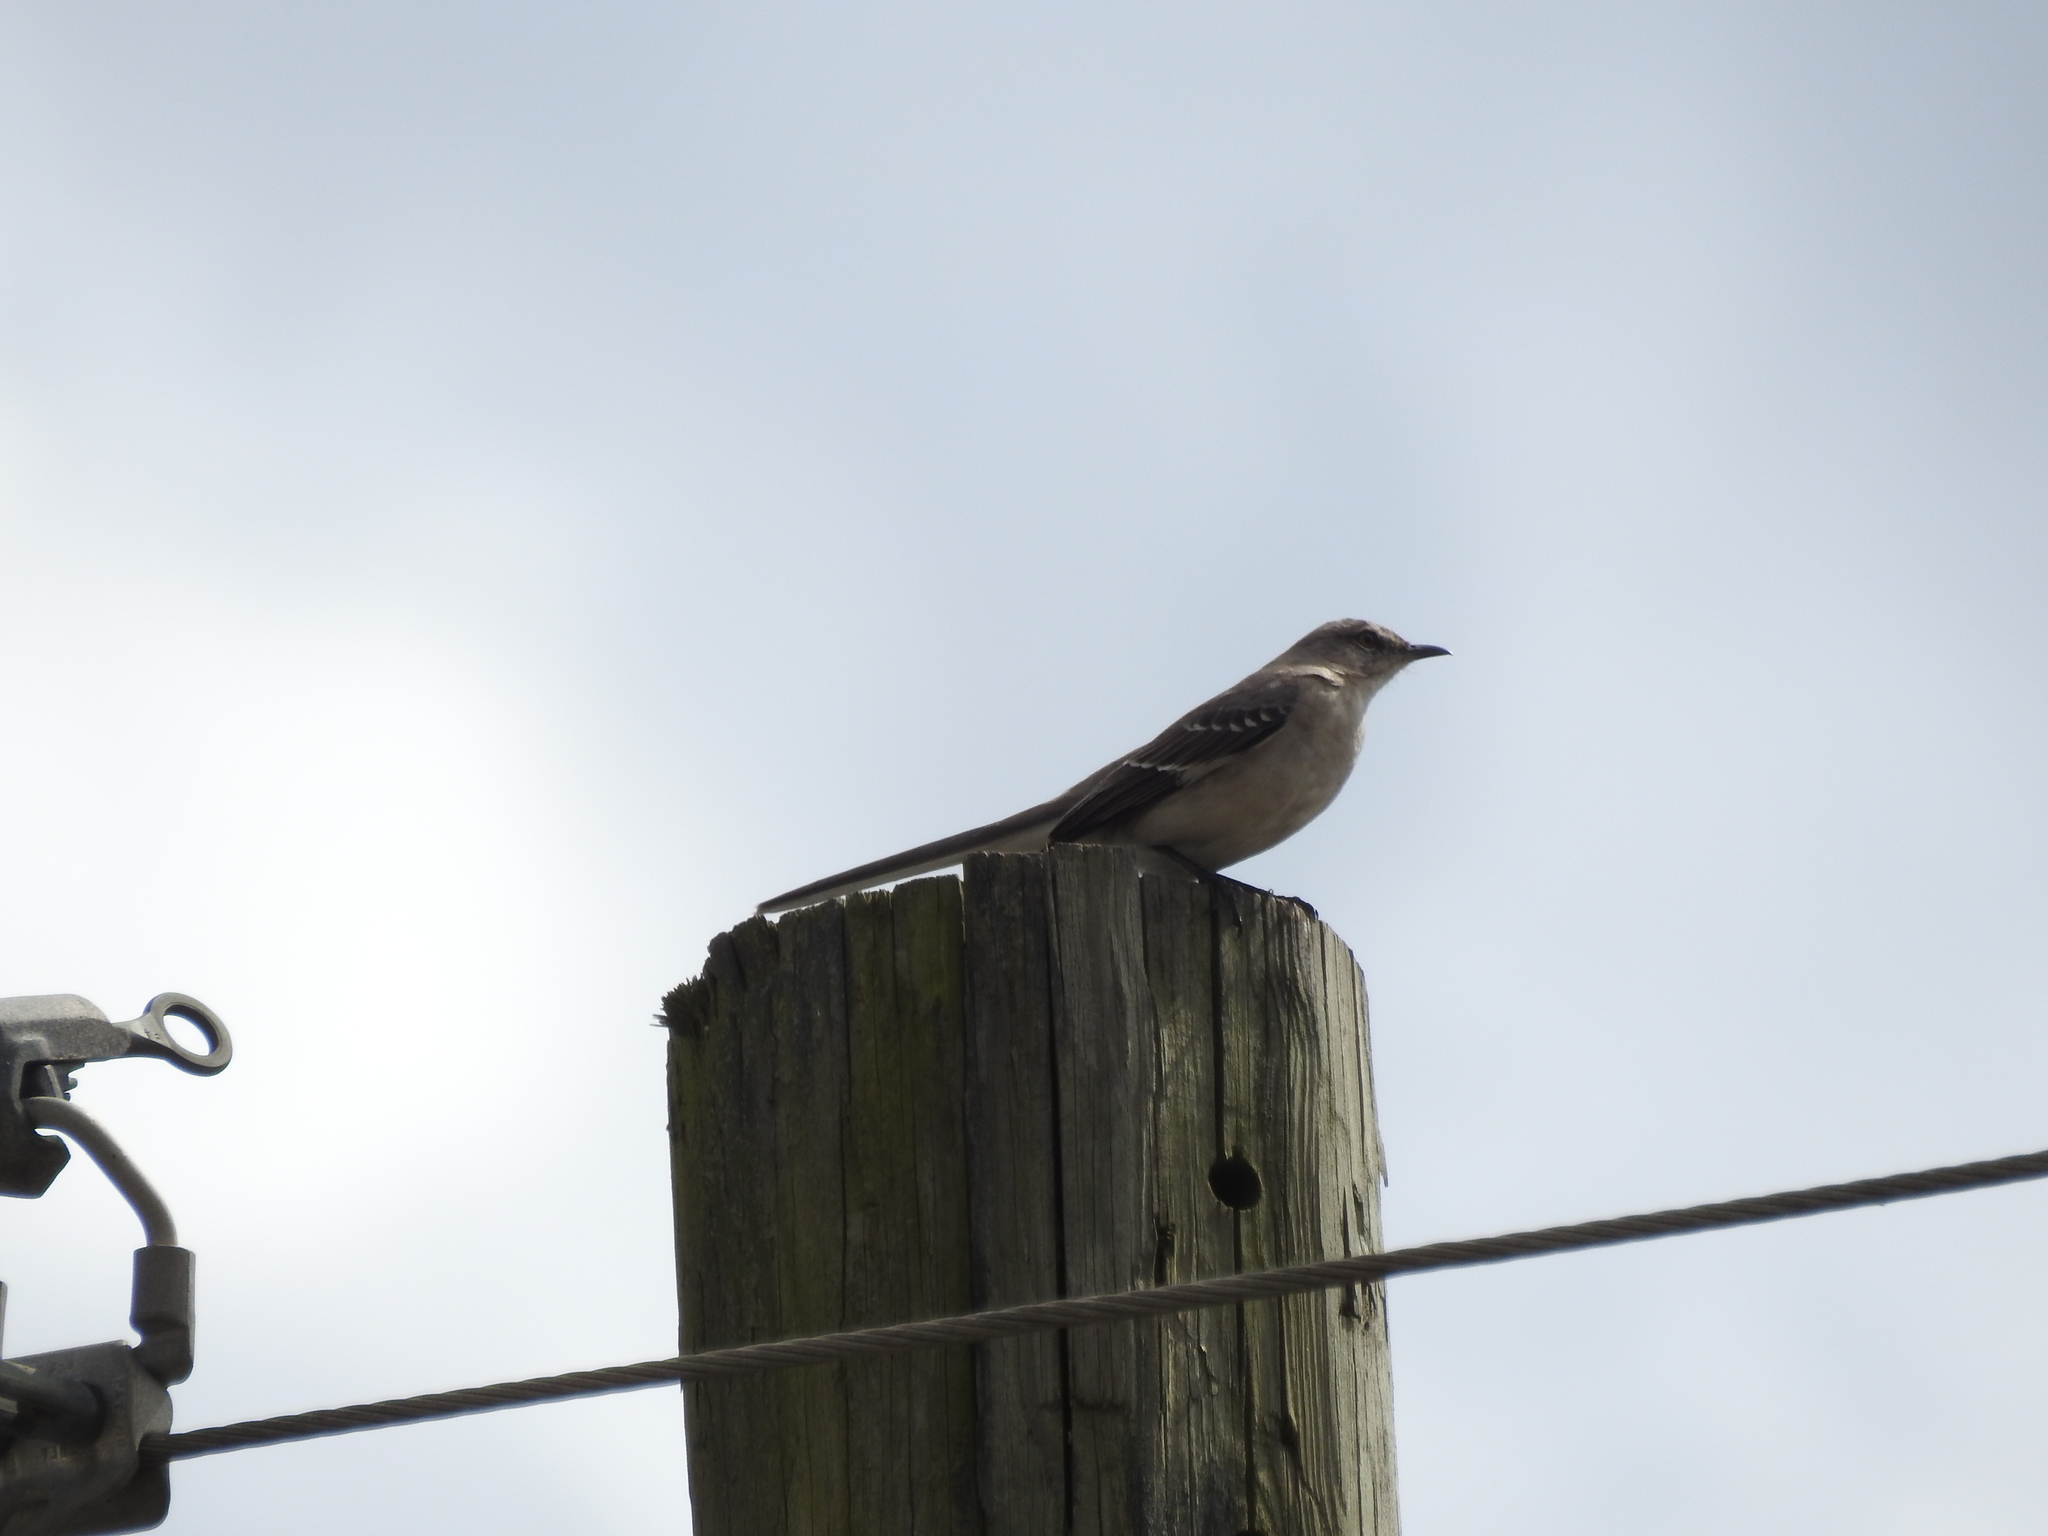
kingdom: Animalia
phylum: Chordata
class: Aves
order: Passeriformes
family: Mimidae
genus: Mimus
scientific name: Mimus polyglottos
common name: Northern mockingbird
